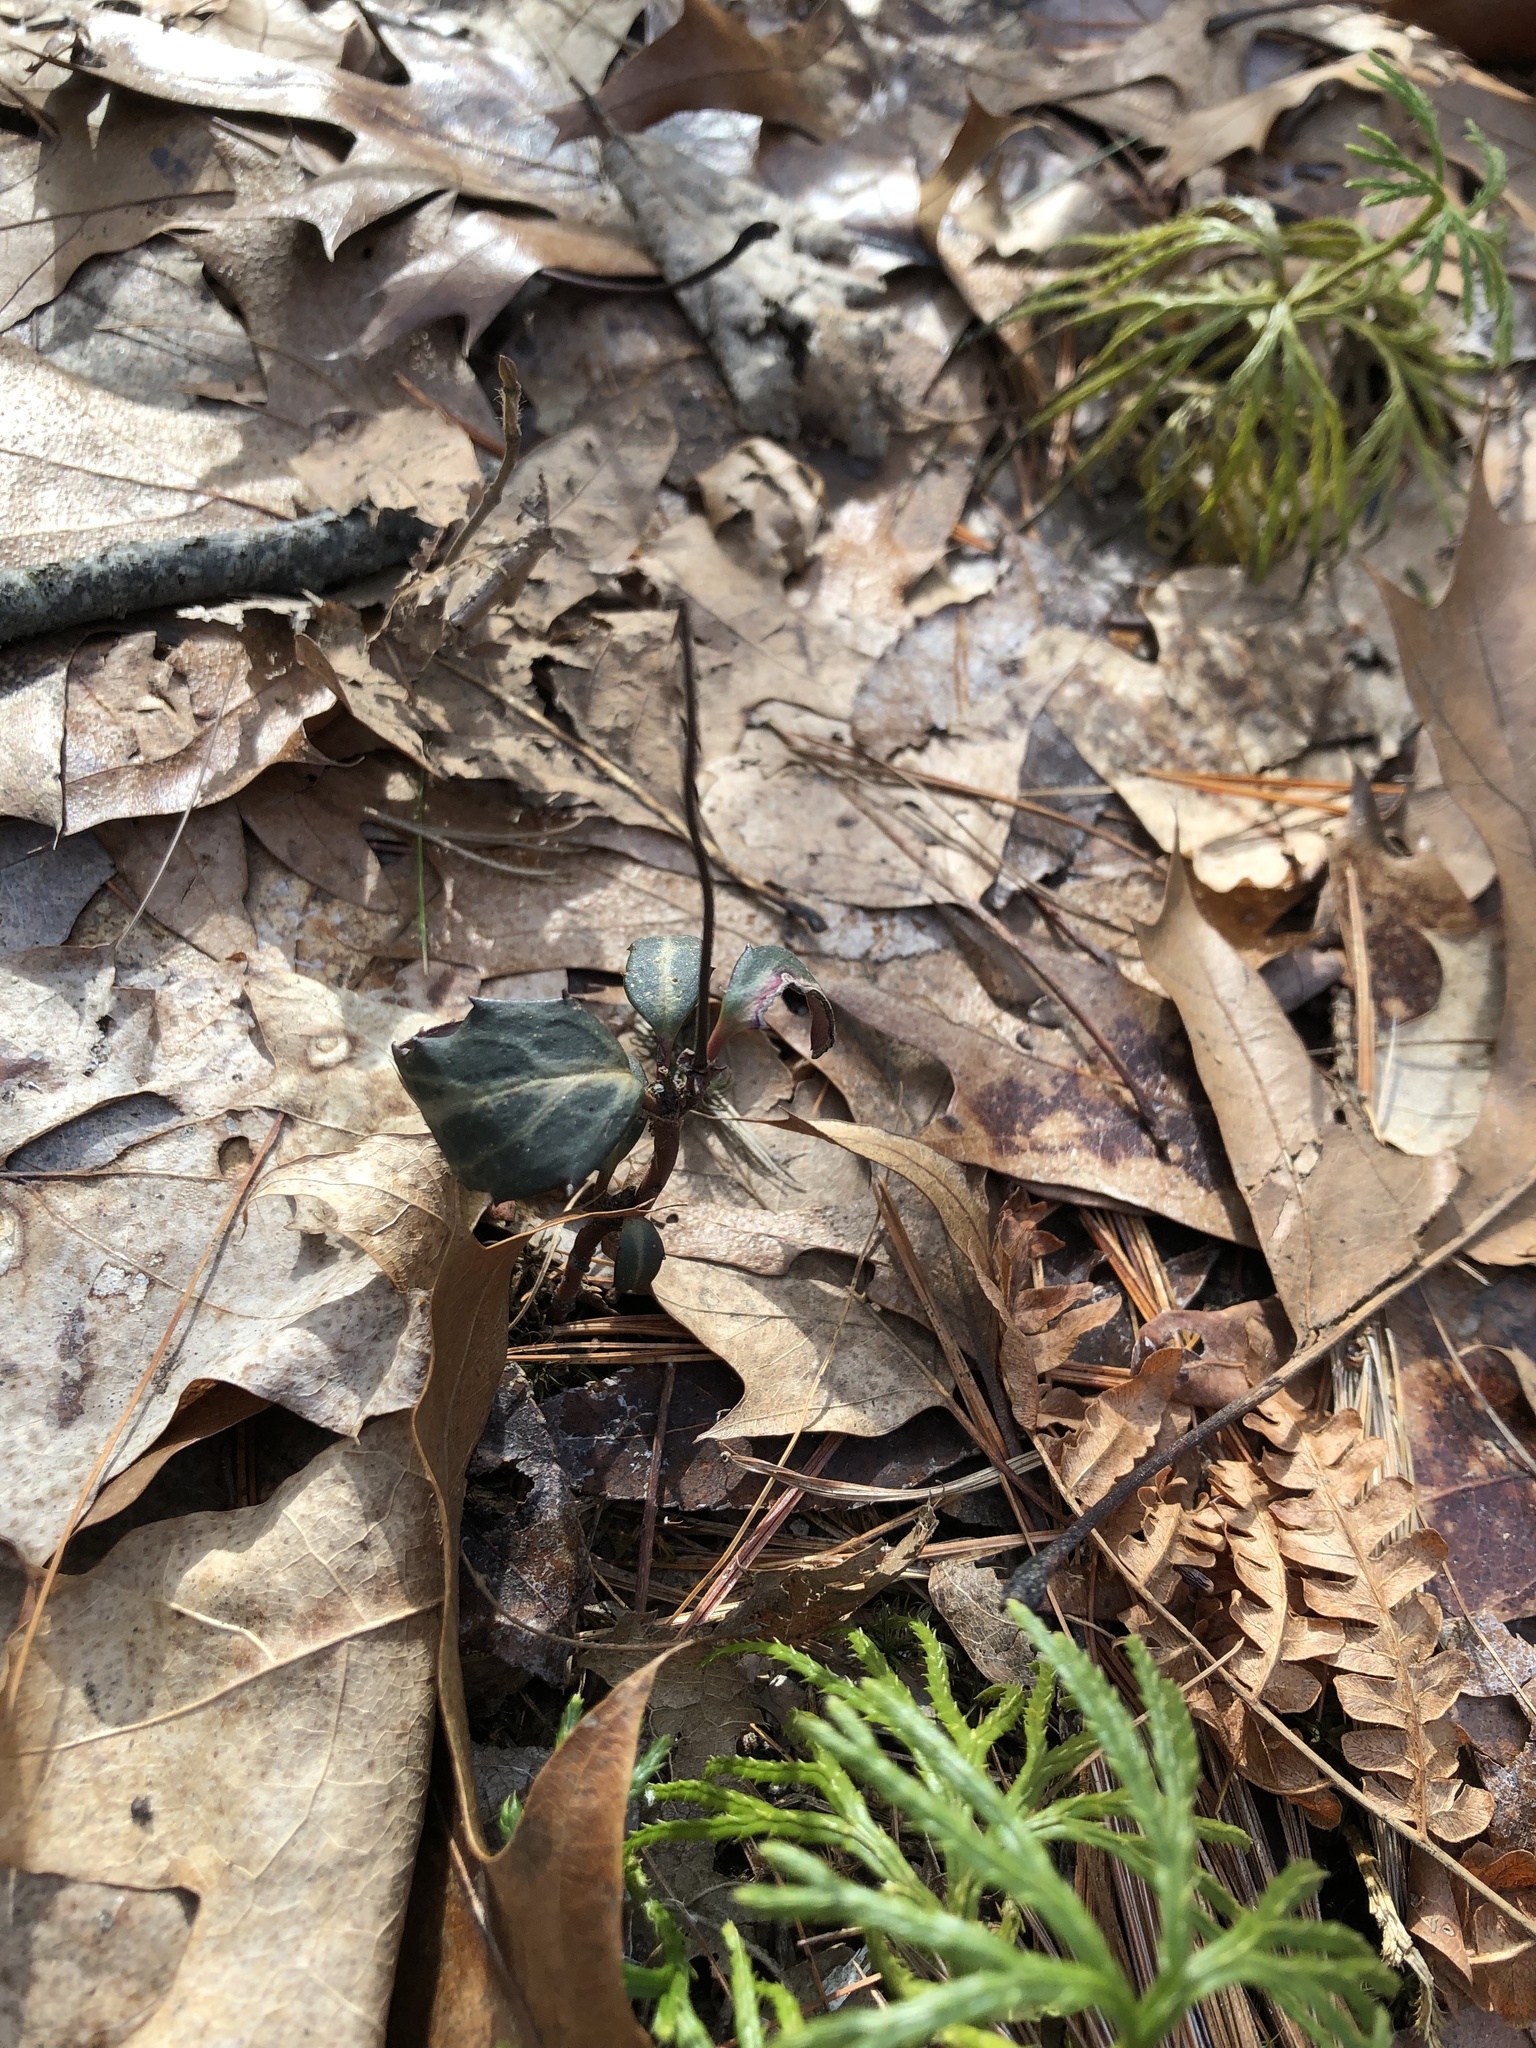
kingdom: Plantae
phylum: Tracheophyta
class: Magnoliopsida
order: Ericales
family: Ericaceae
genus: Chimaphila
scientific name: Chimaphila maculata
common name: Spotted pipsissewa
